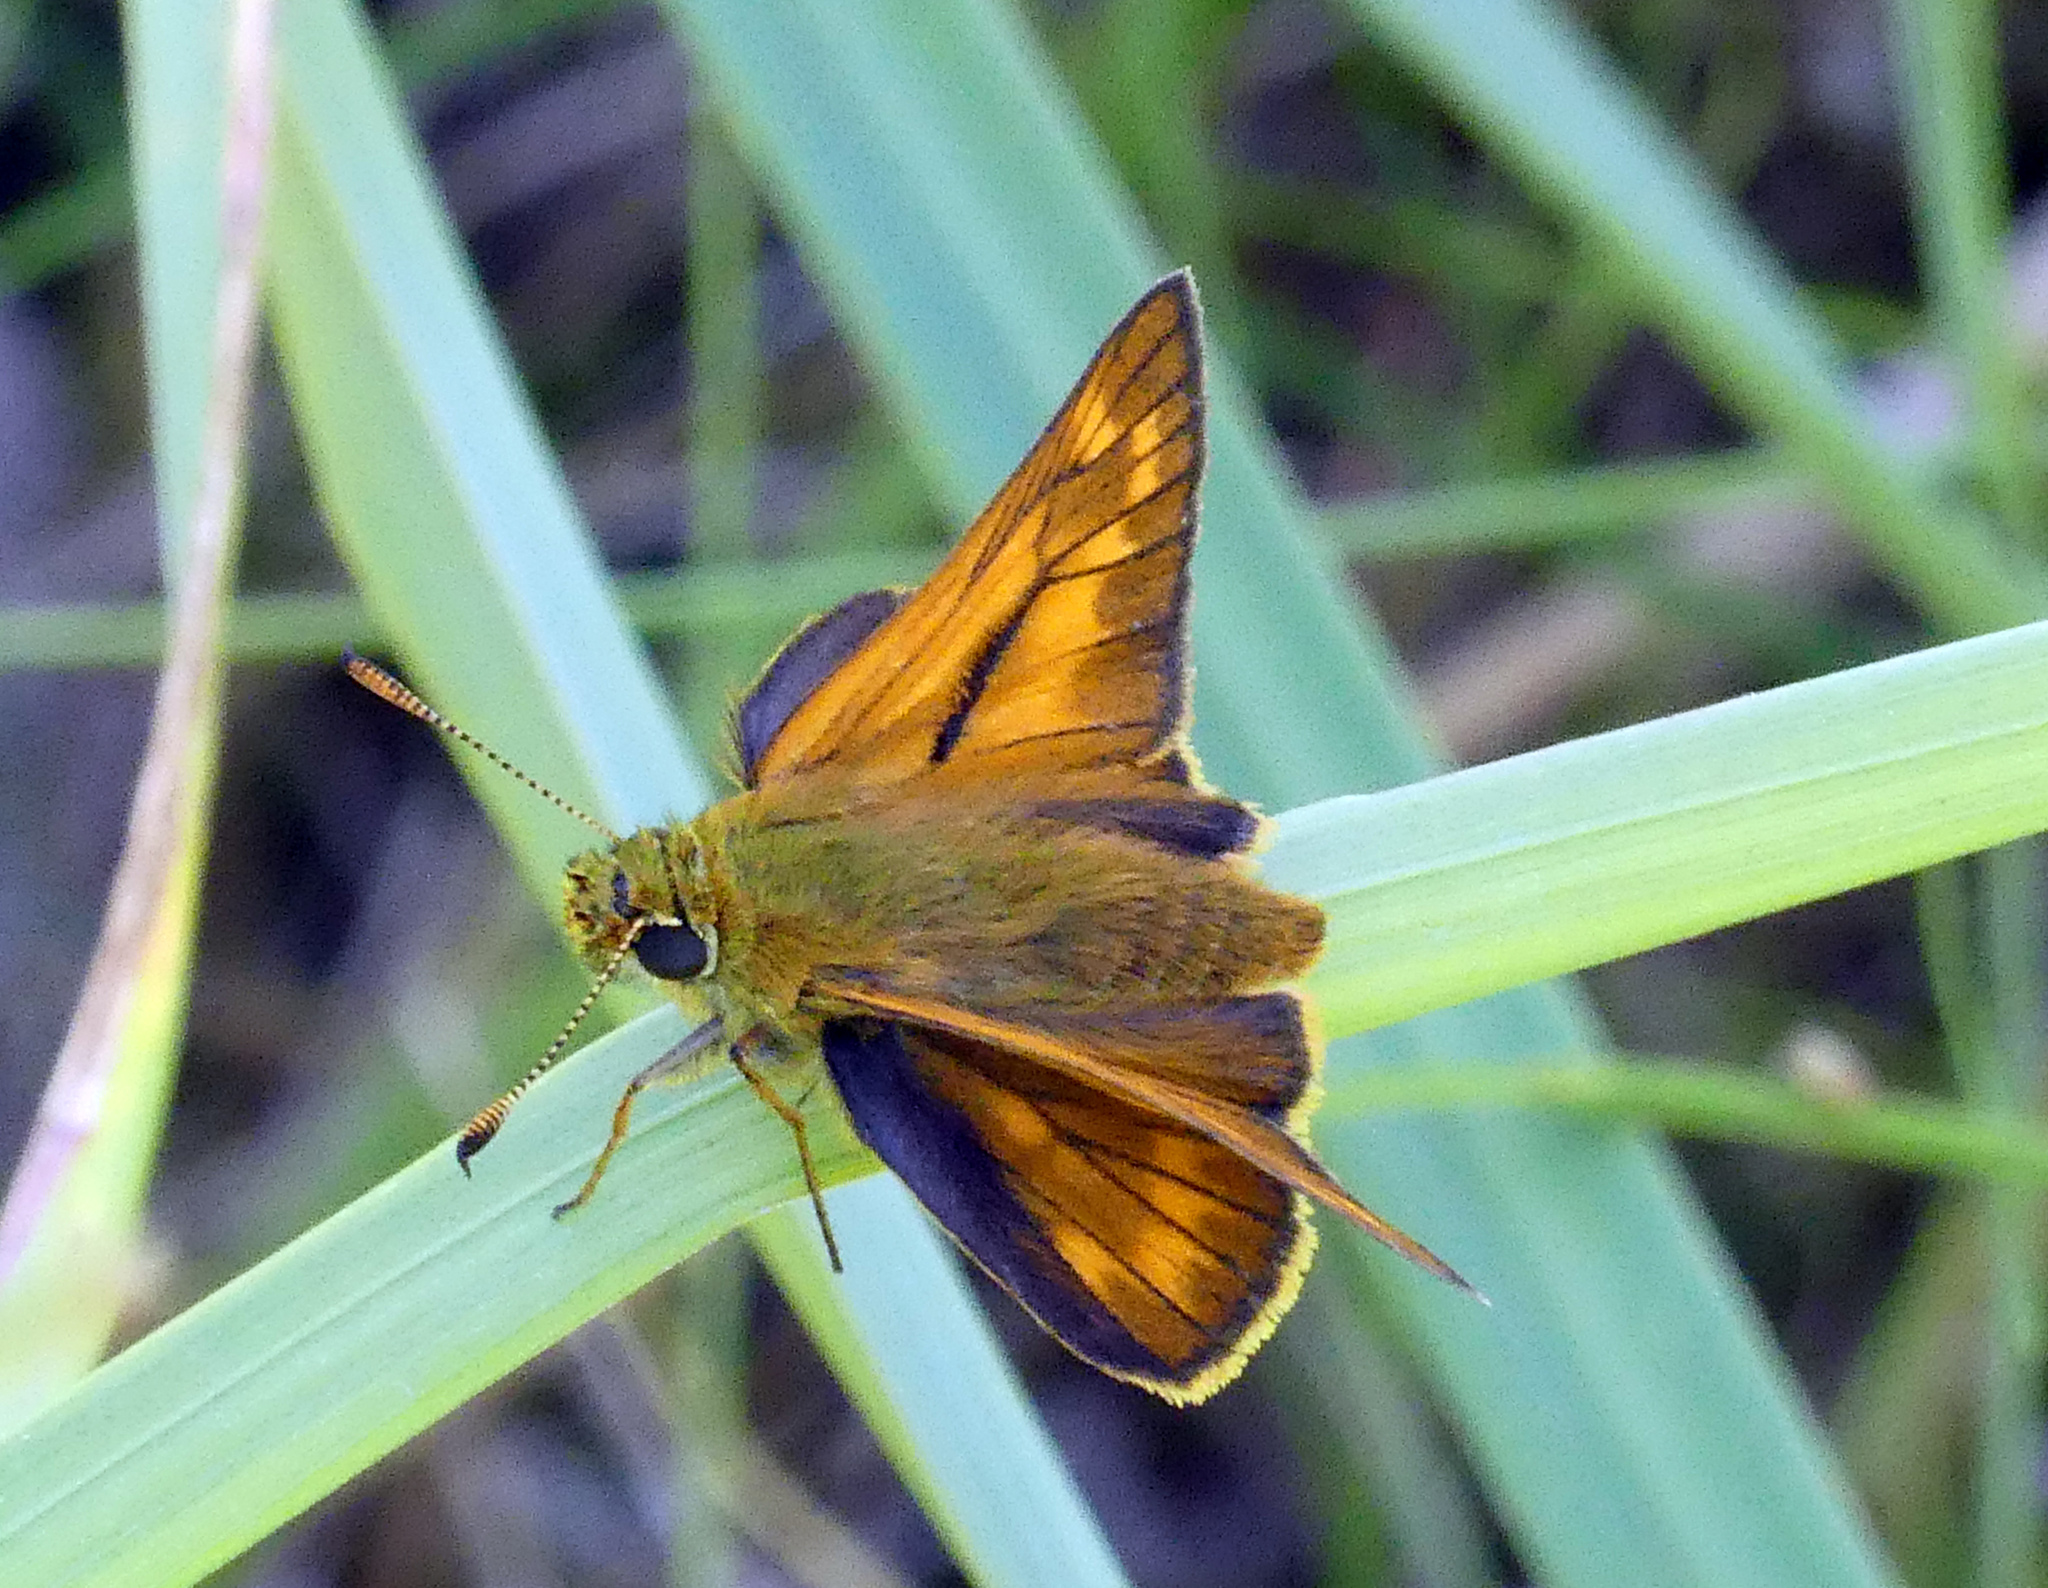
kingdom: Animalia
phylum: Arthropoda
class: Insecta
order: Lepidoptera
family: Hesperiidae
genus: Ochlodes
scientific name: Ochlodes venata
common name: Large skipper
